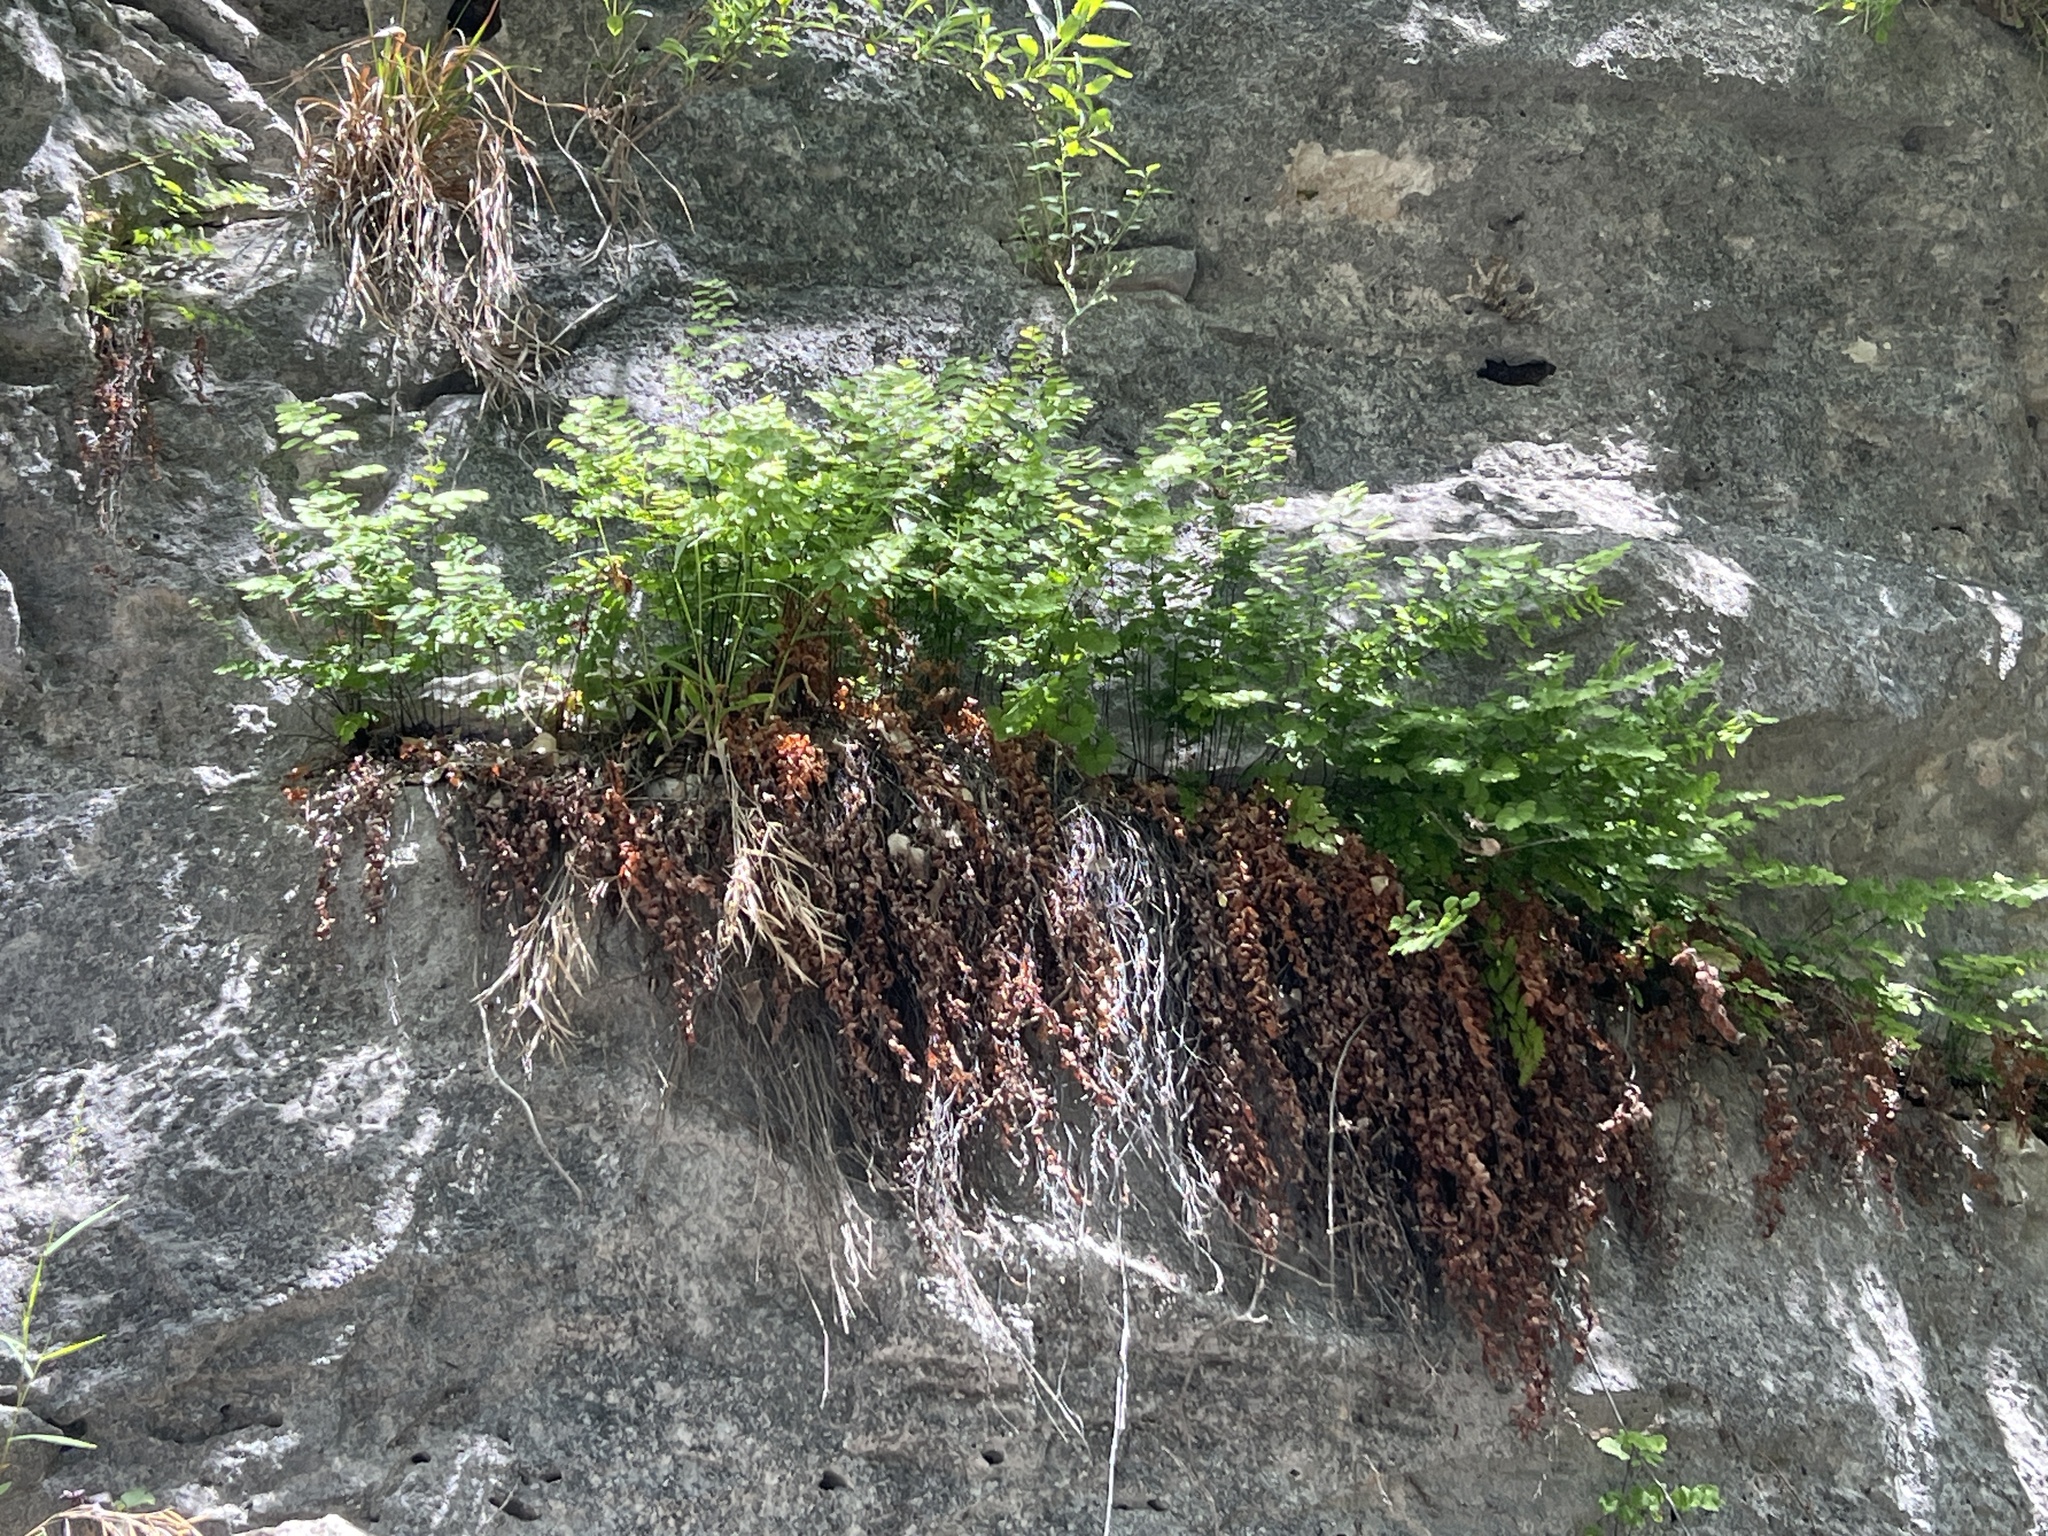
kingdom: Plantae
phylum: Tracheophyta
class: Polypodiopsida
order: Polypodiales
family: Pteridaceae
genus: Adiantum
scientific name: Adiantum capillus-veneris
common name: Maidenhair fern
